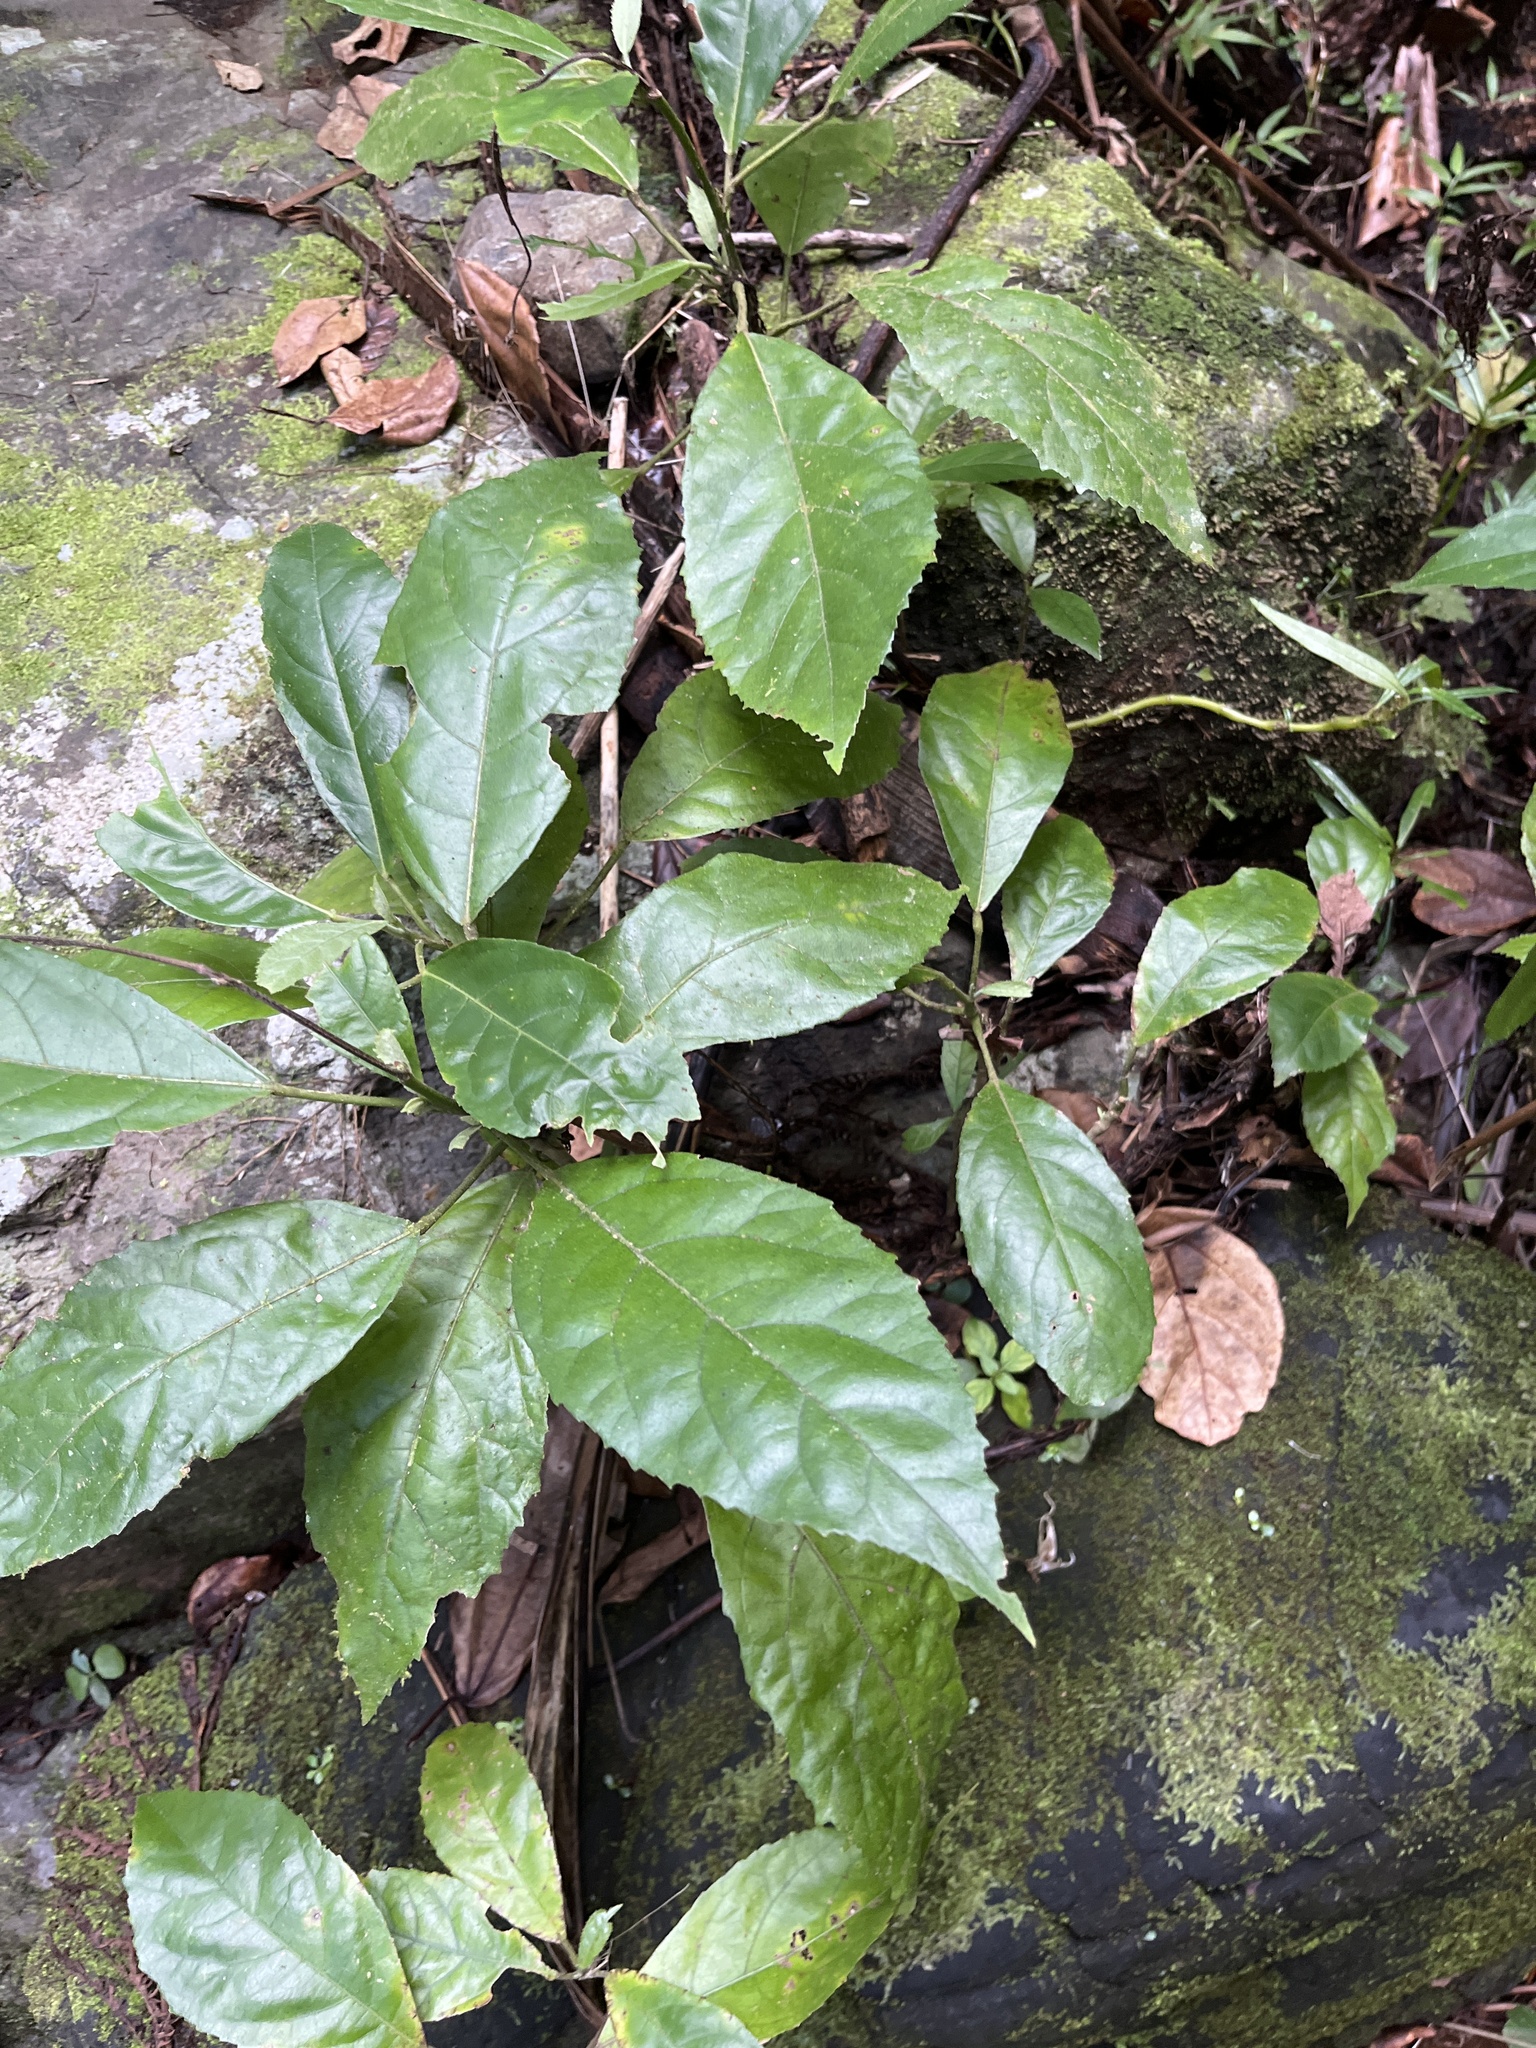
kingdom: Plantae
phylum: Tracheophyta
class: Magnoliopsida
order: Malvales
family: Malvaceae
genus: Pavonia
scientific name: Pavonia fruticosa
